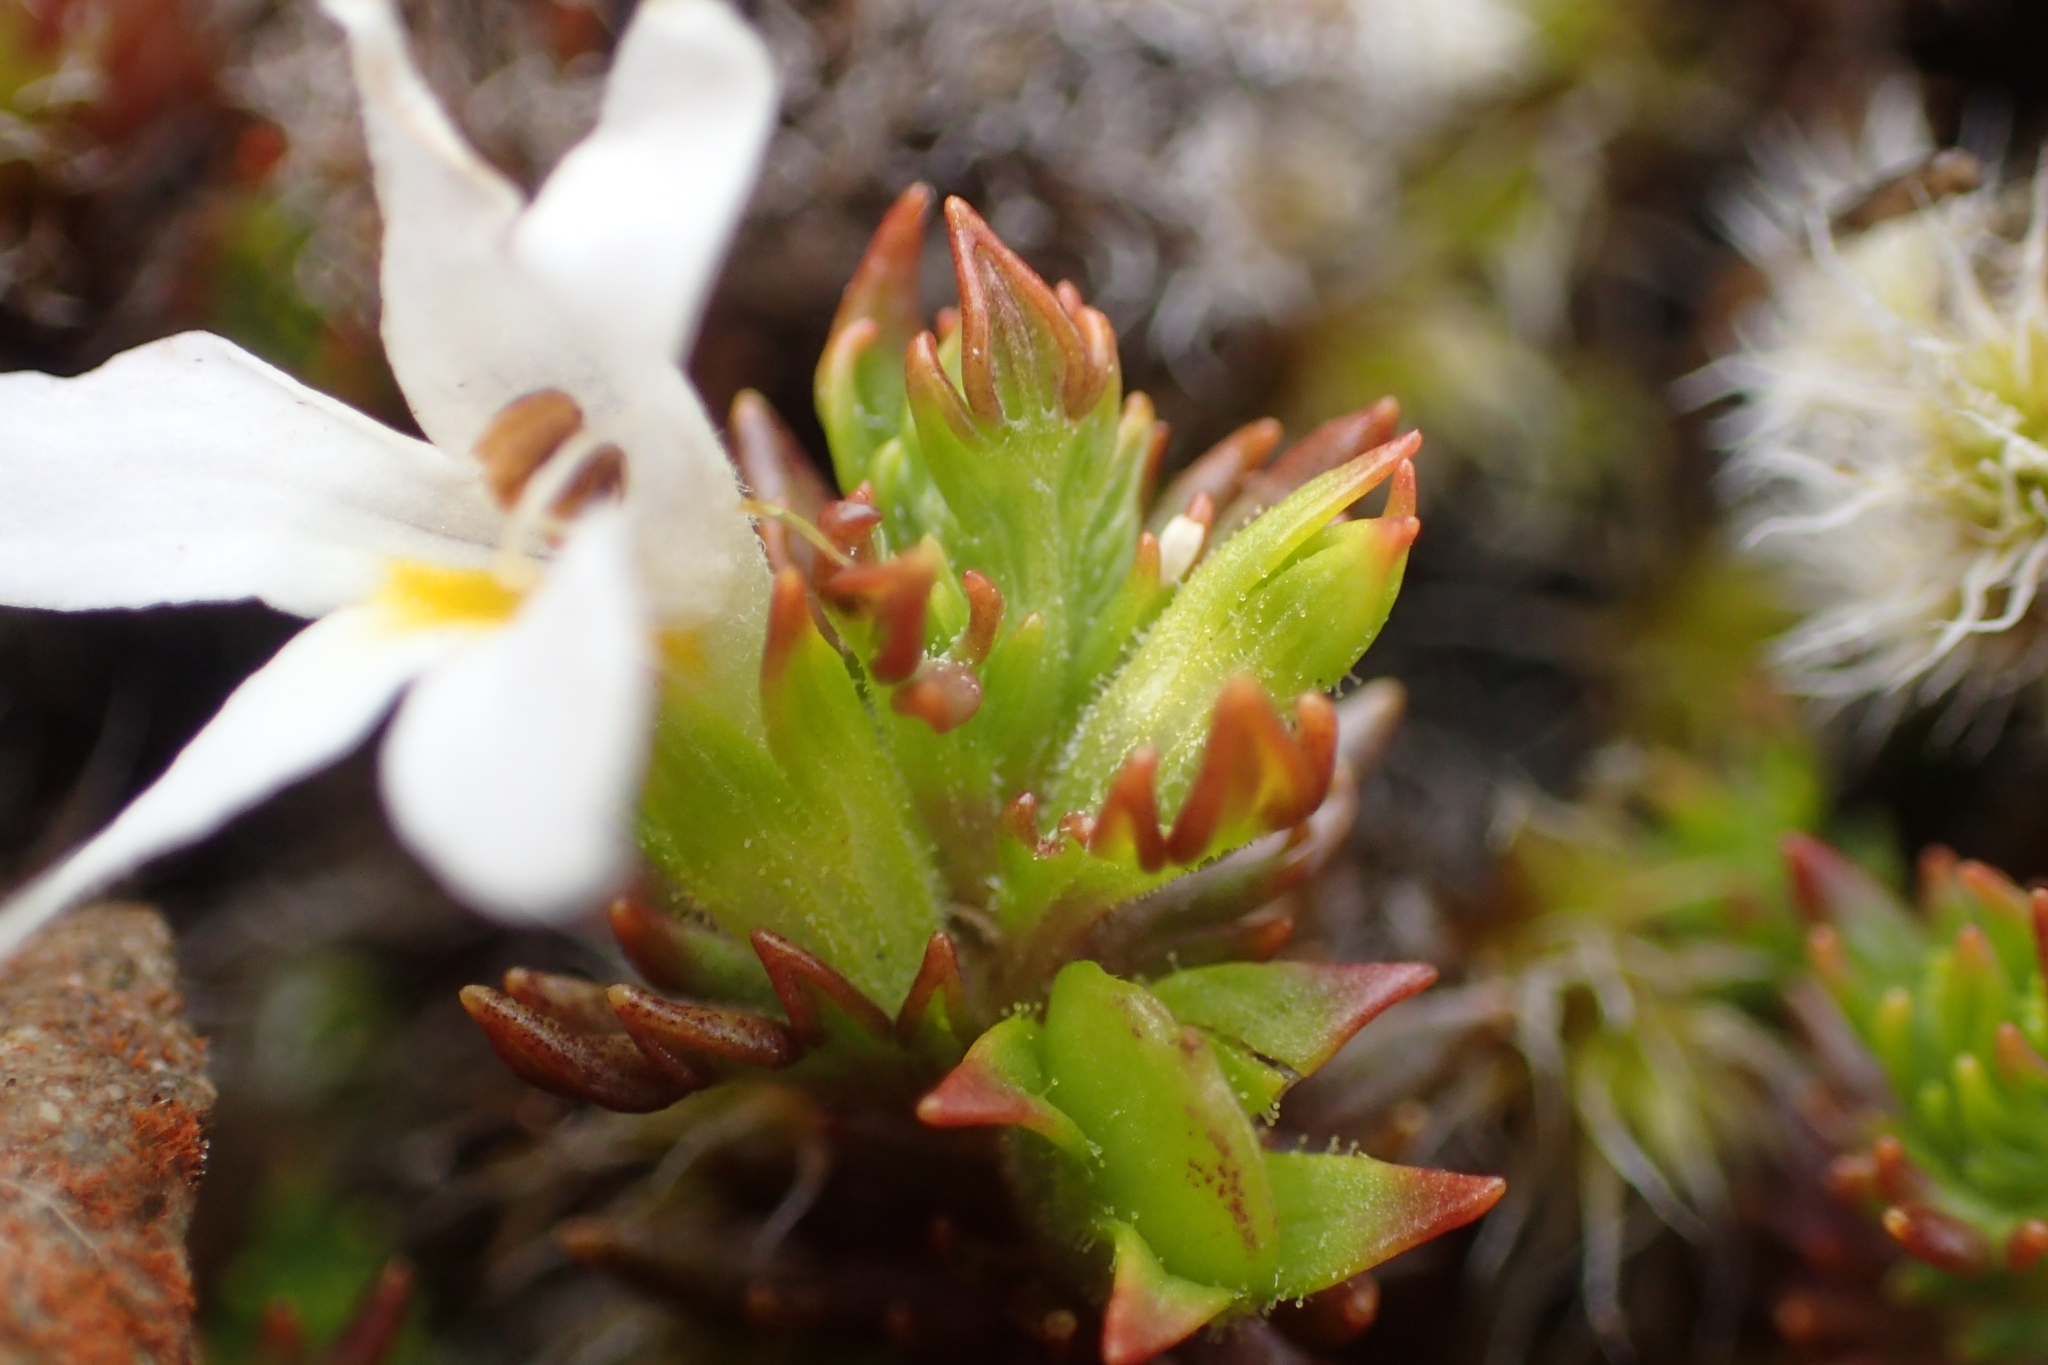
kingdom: Plantae
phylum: Tracheophyta
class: Magnoliopsida
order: Lamiales
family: Orobanchaceae
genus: Euphrasia
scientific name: Euphrasia zelandica
